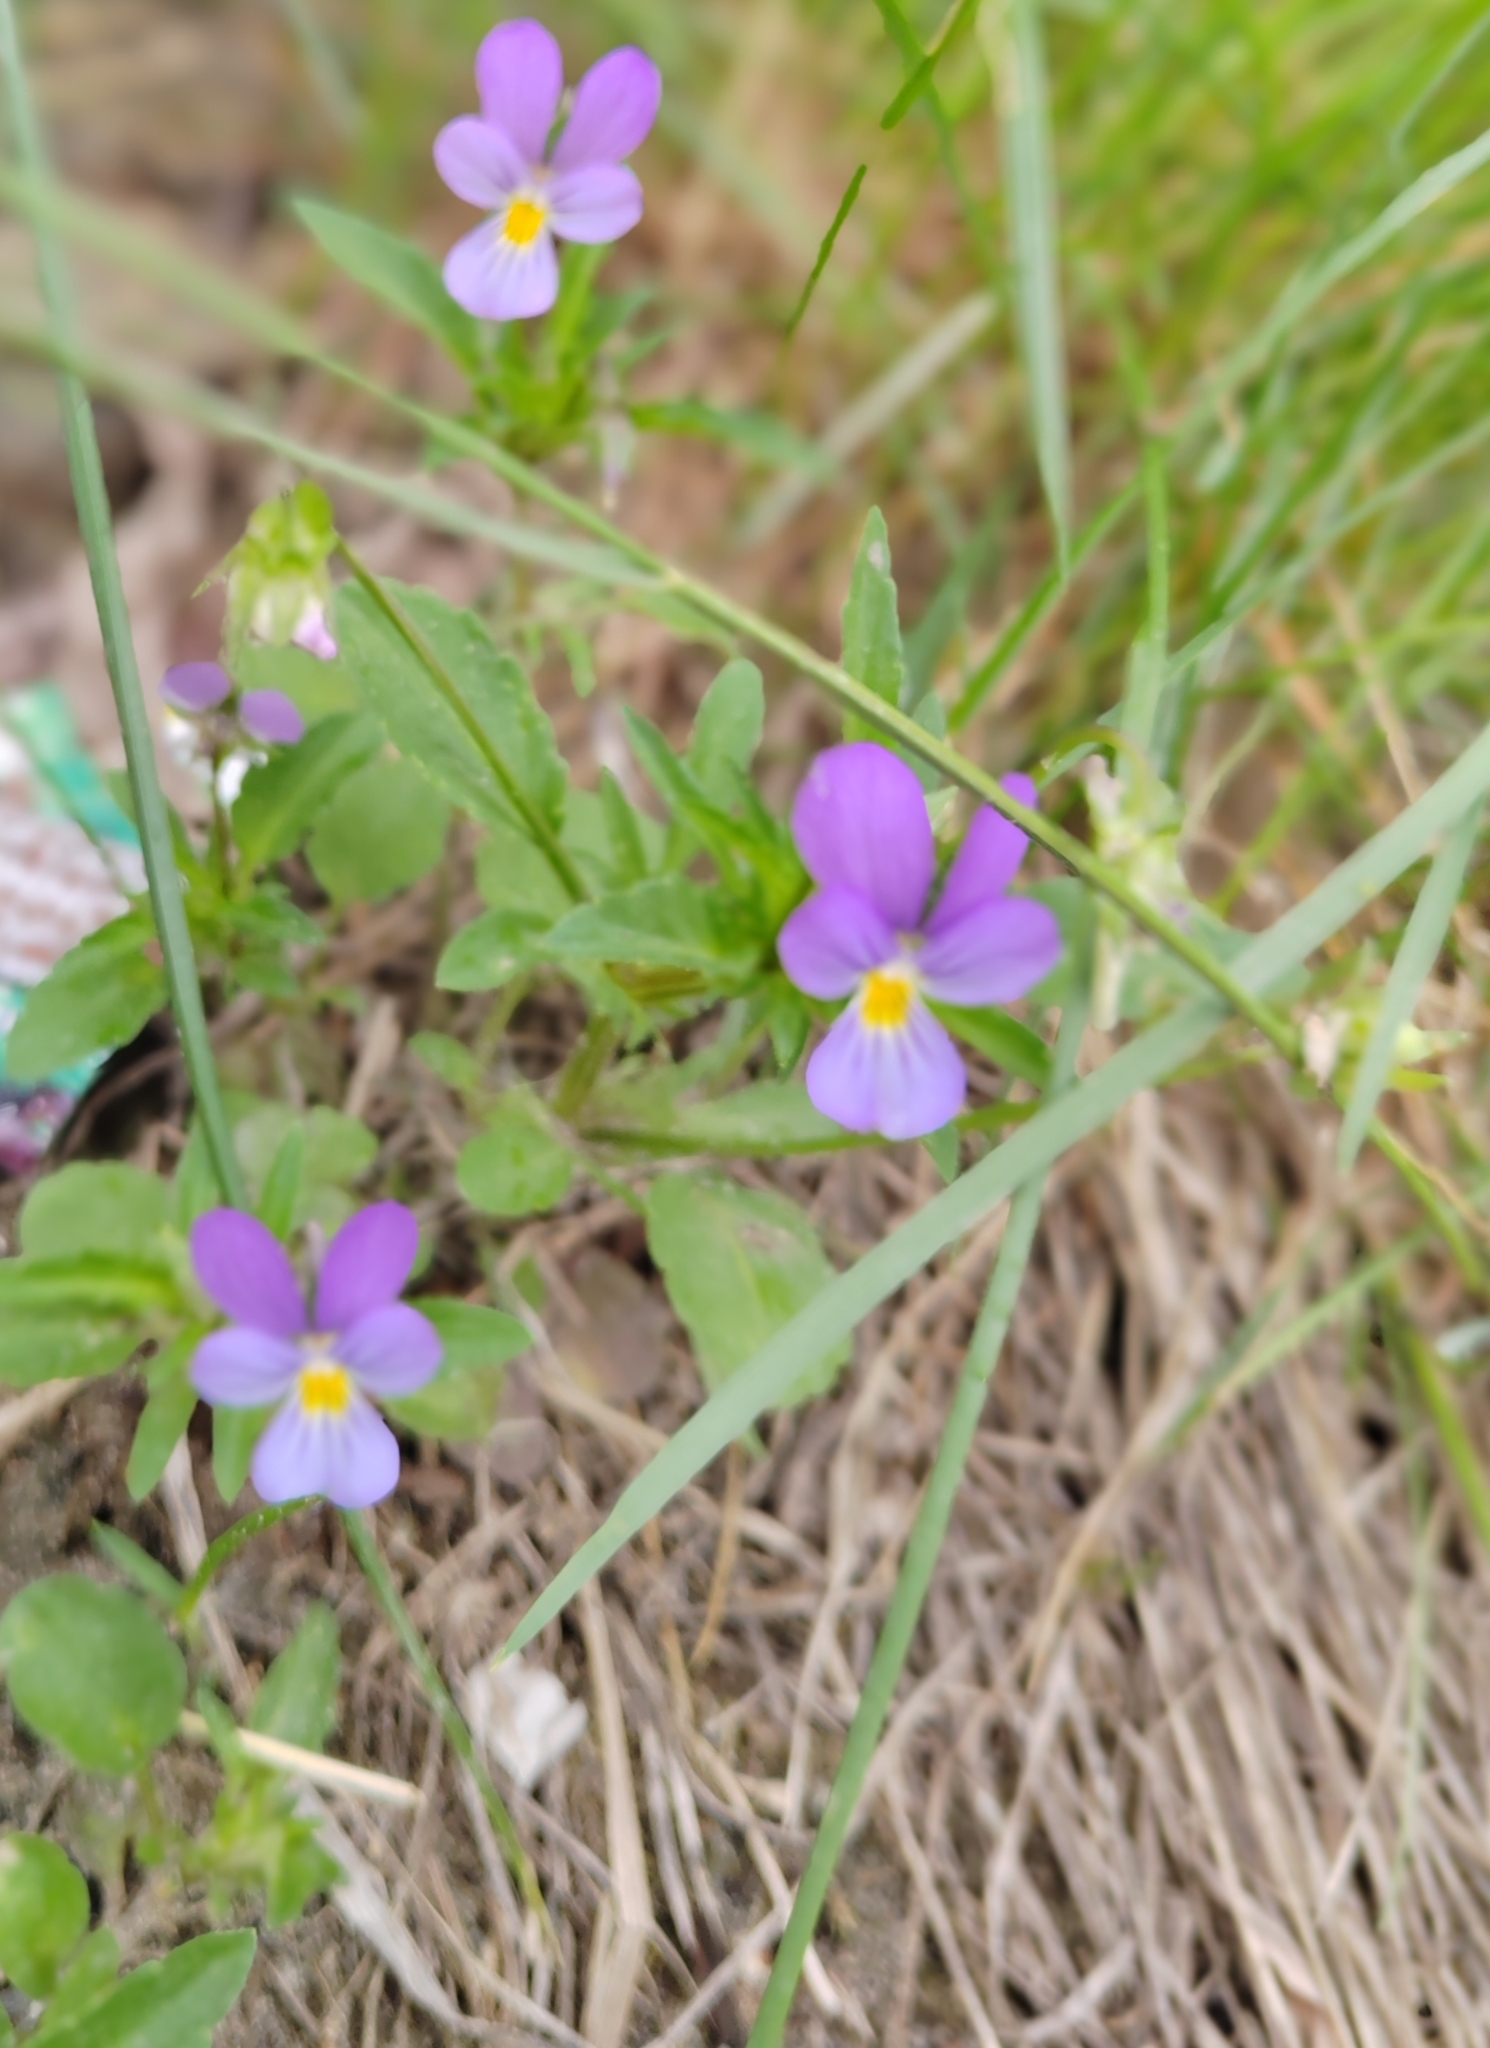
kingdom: Plantae
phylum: Tracheophyta
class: Magnoliopsida
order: Malpighiales
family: Violaceae
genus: Viola
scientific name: Viola tricolor
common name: Pansy
